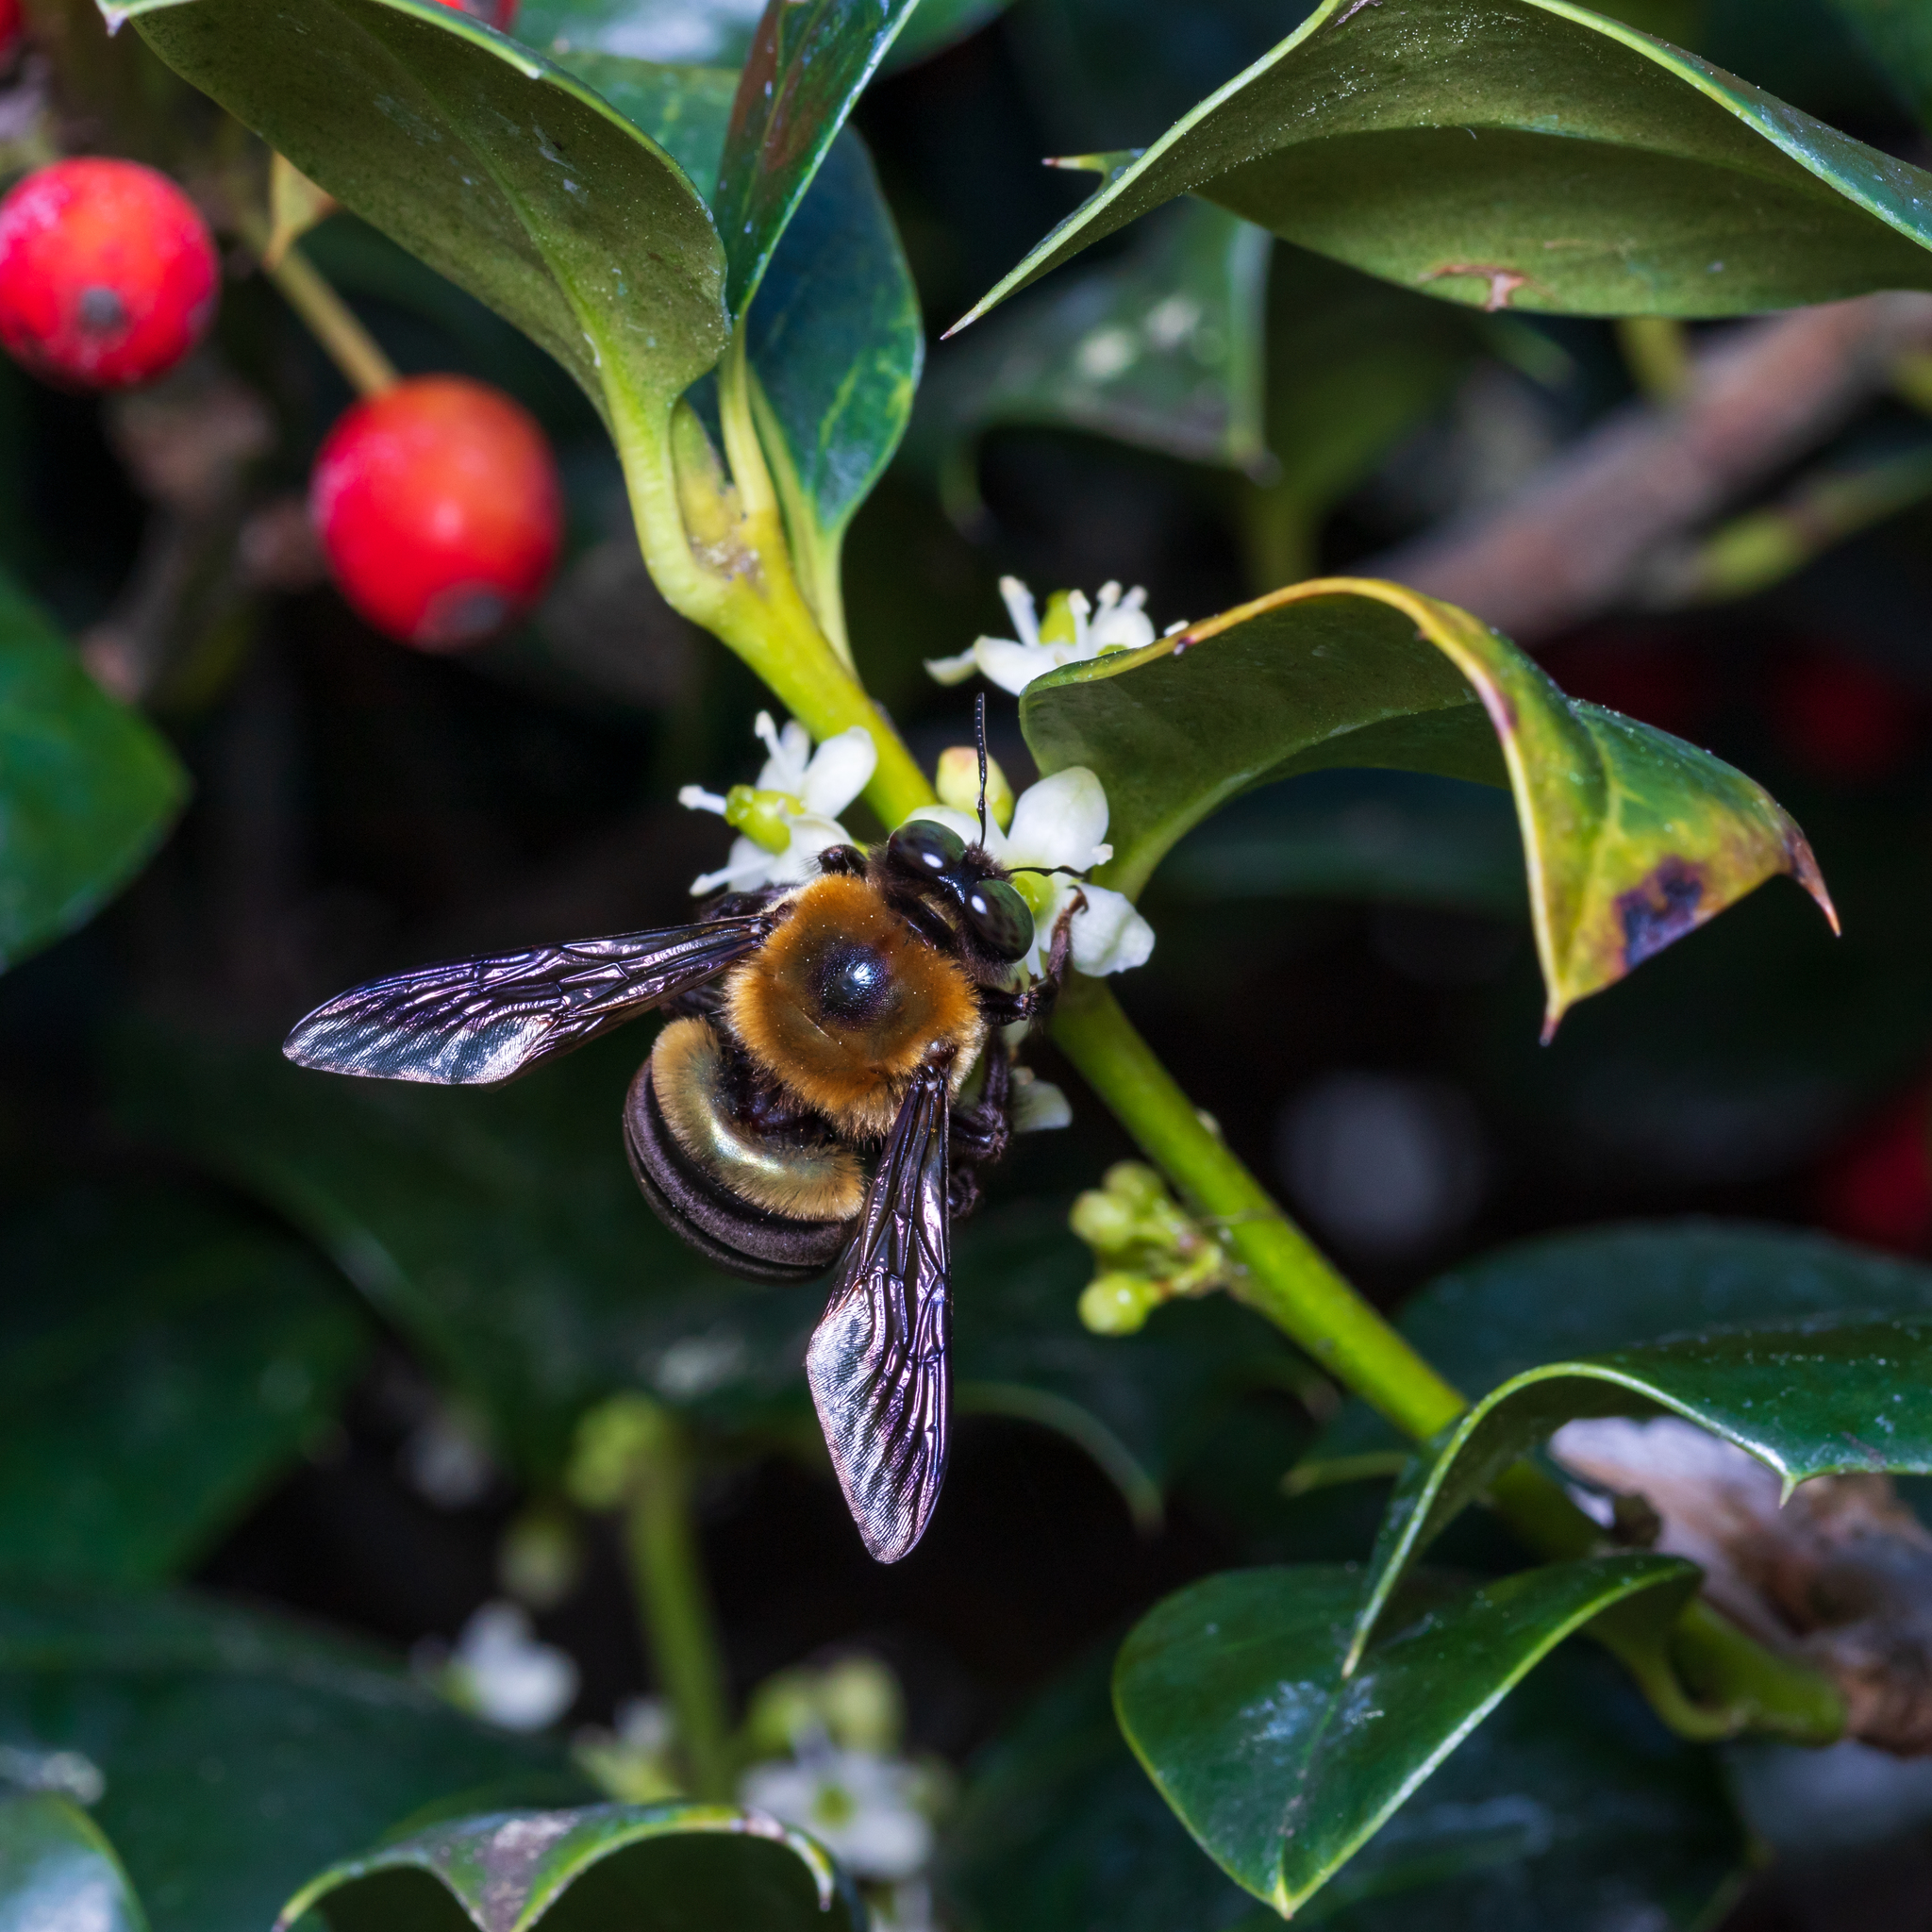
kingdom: Animalia
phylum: Arthropoda
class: Insecta
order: Hymenoptera
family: Apidae
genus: Xylocopa
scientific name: Xylocopa virginica
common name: Carpenter bee
